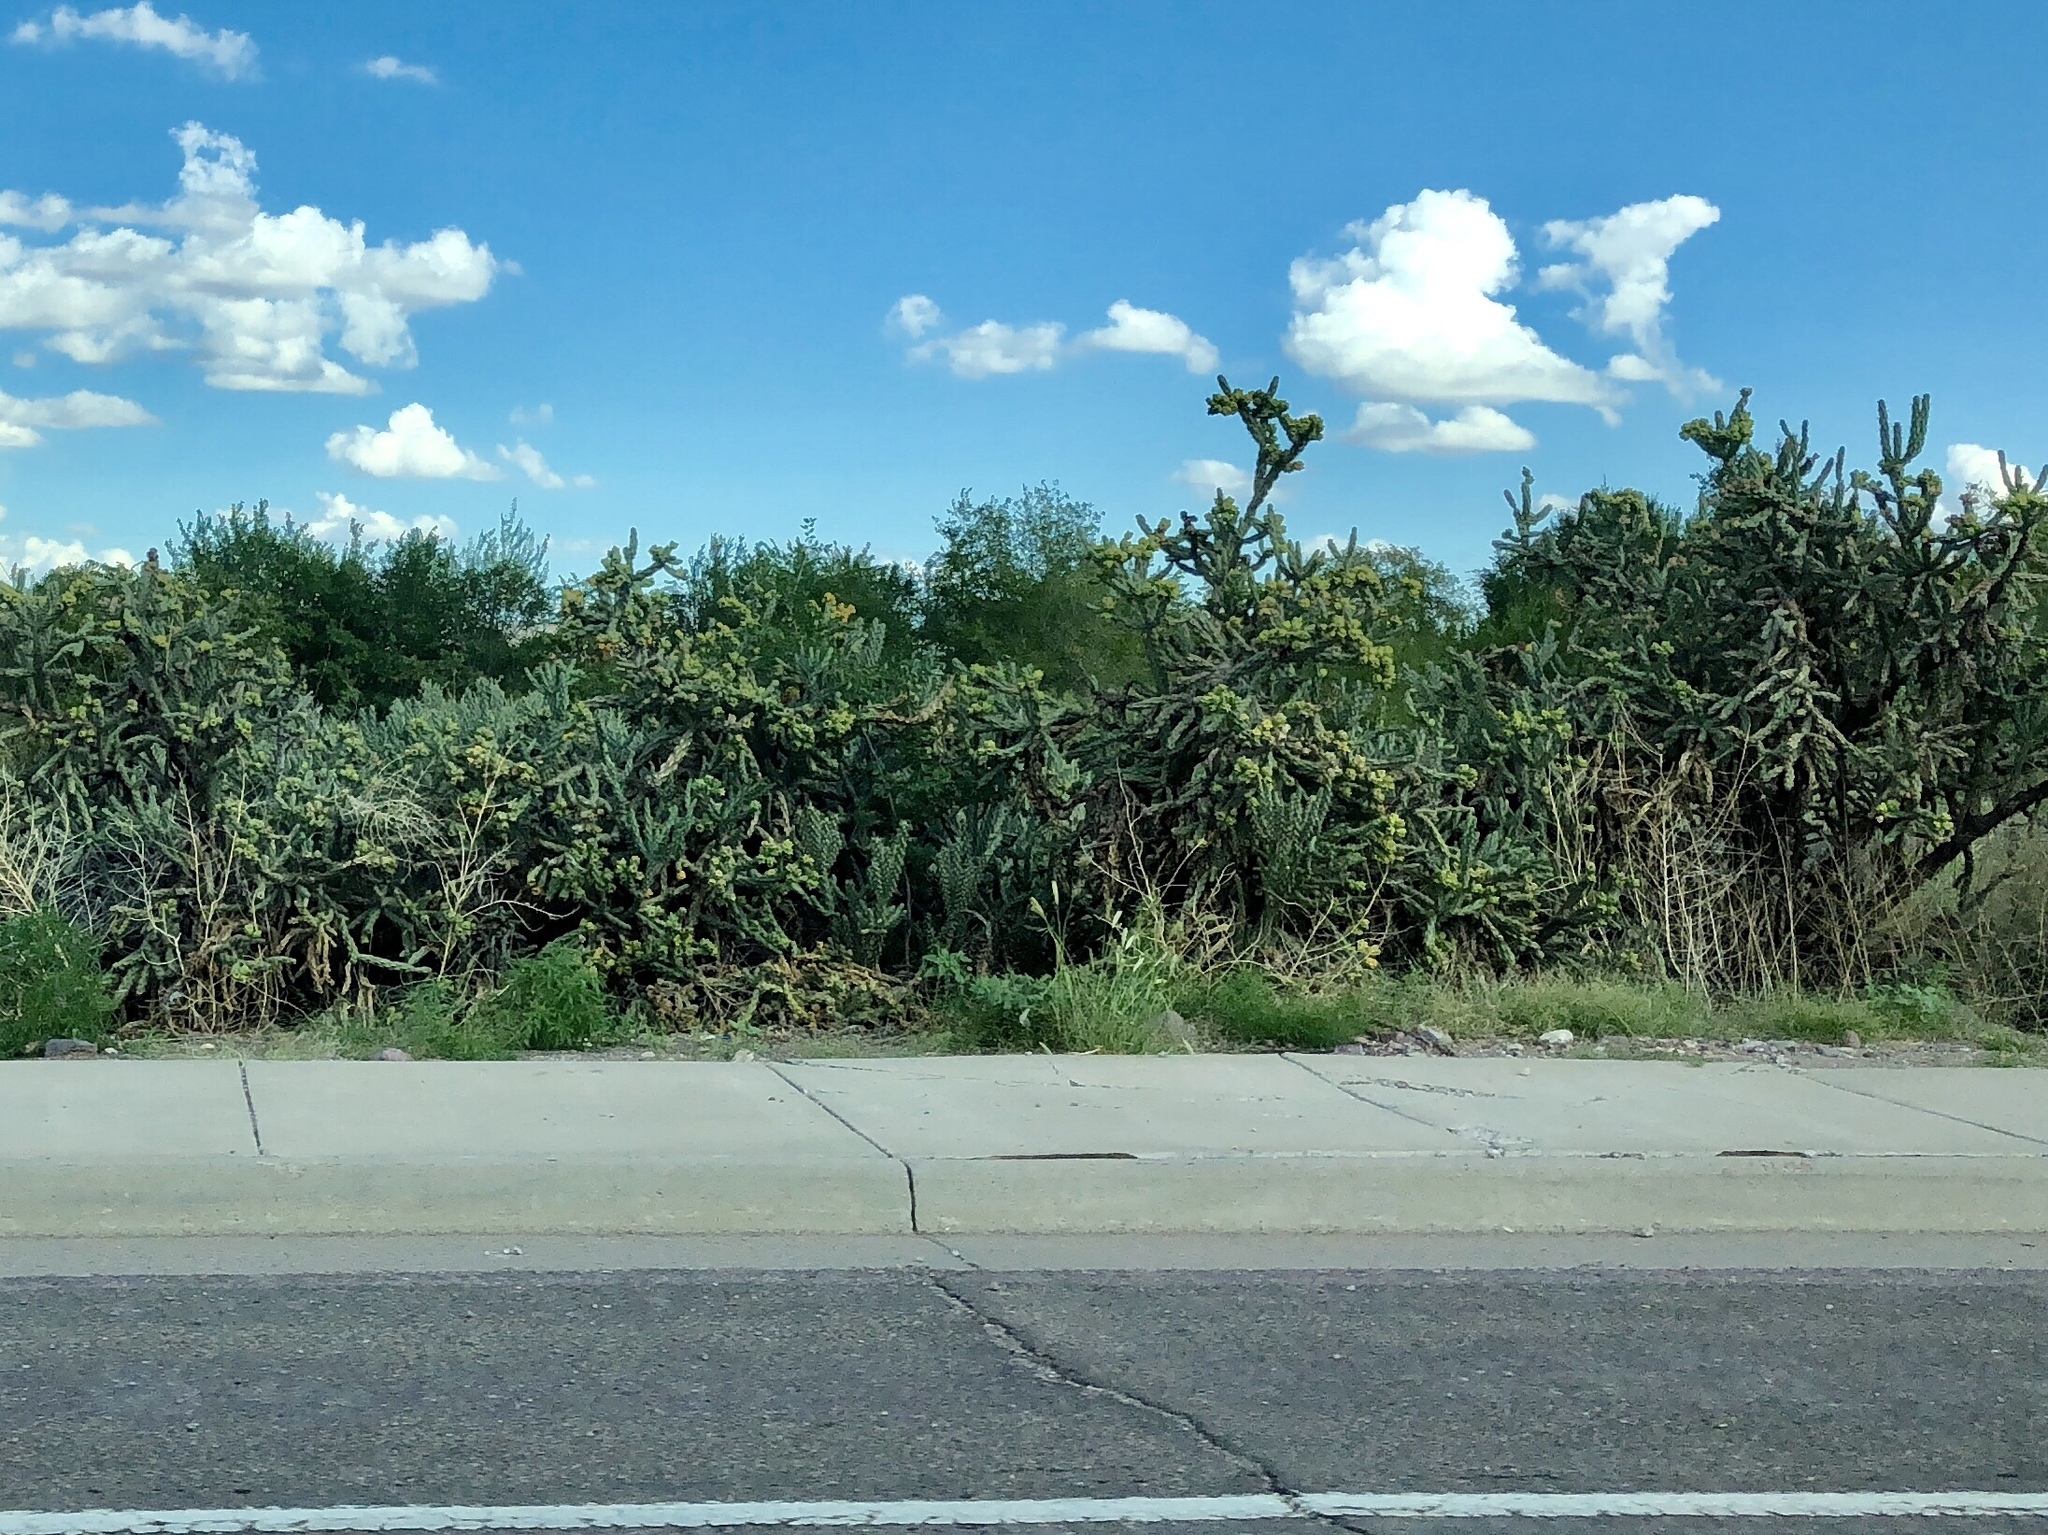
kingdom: Plantae
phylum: Tracheophyta
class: Magnoliopsida
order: Caryophyllales
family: Cactaceae
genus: Cylindropuntia
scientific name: Cylindropuntia imbricata
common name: Candelabrum cactus
